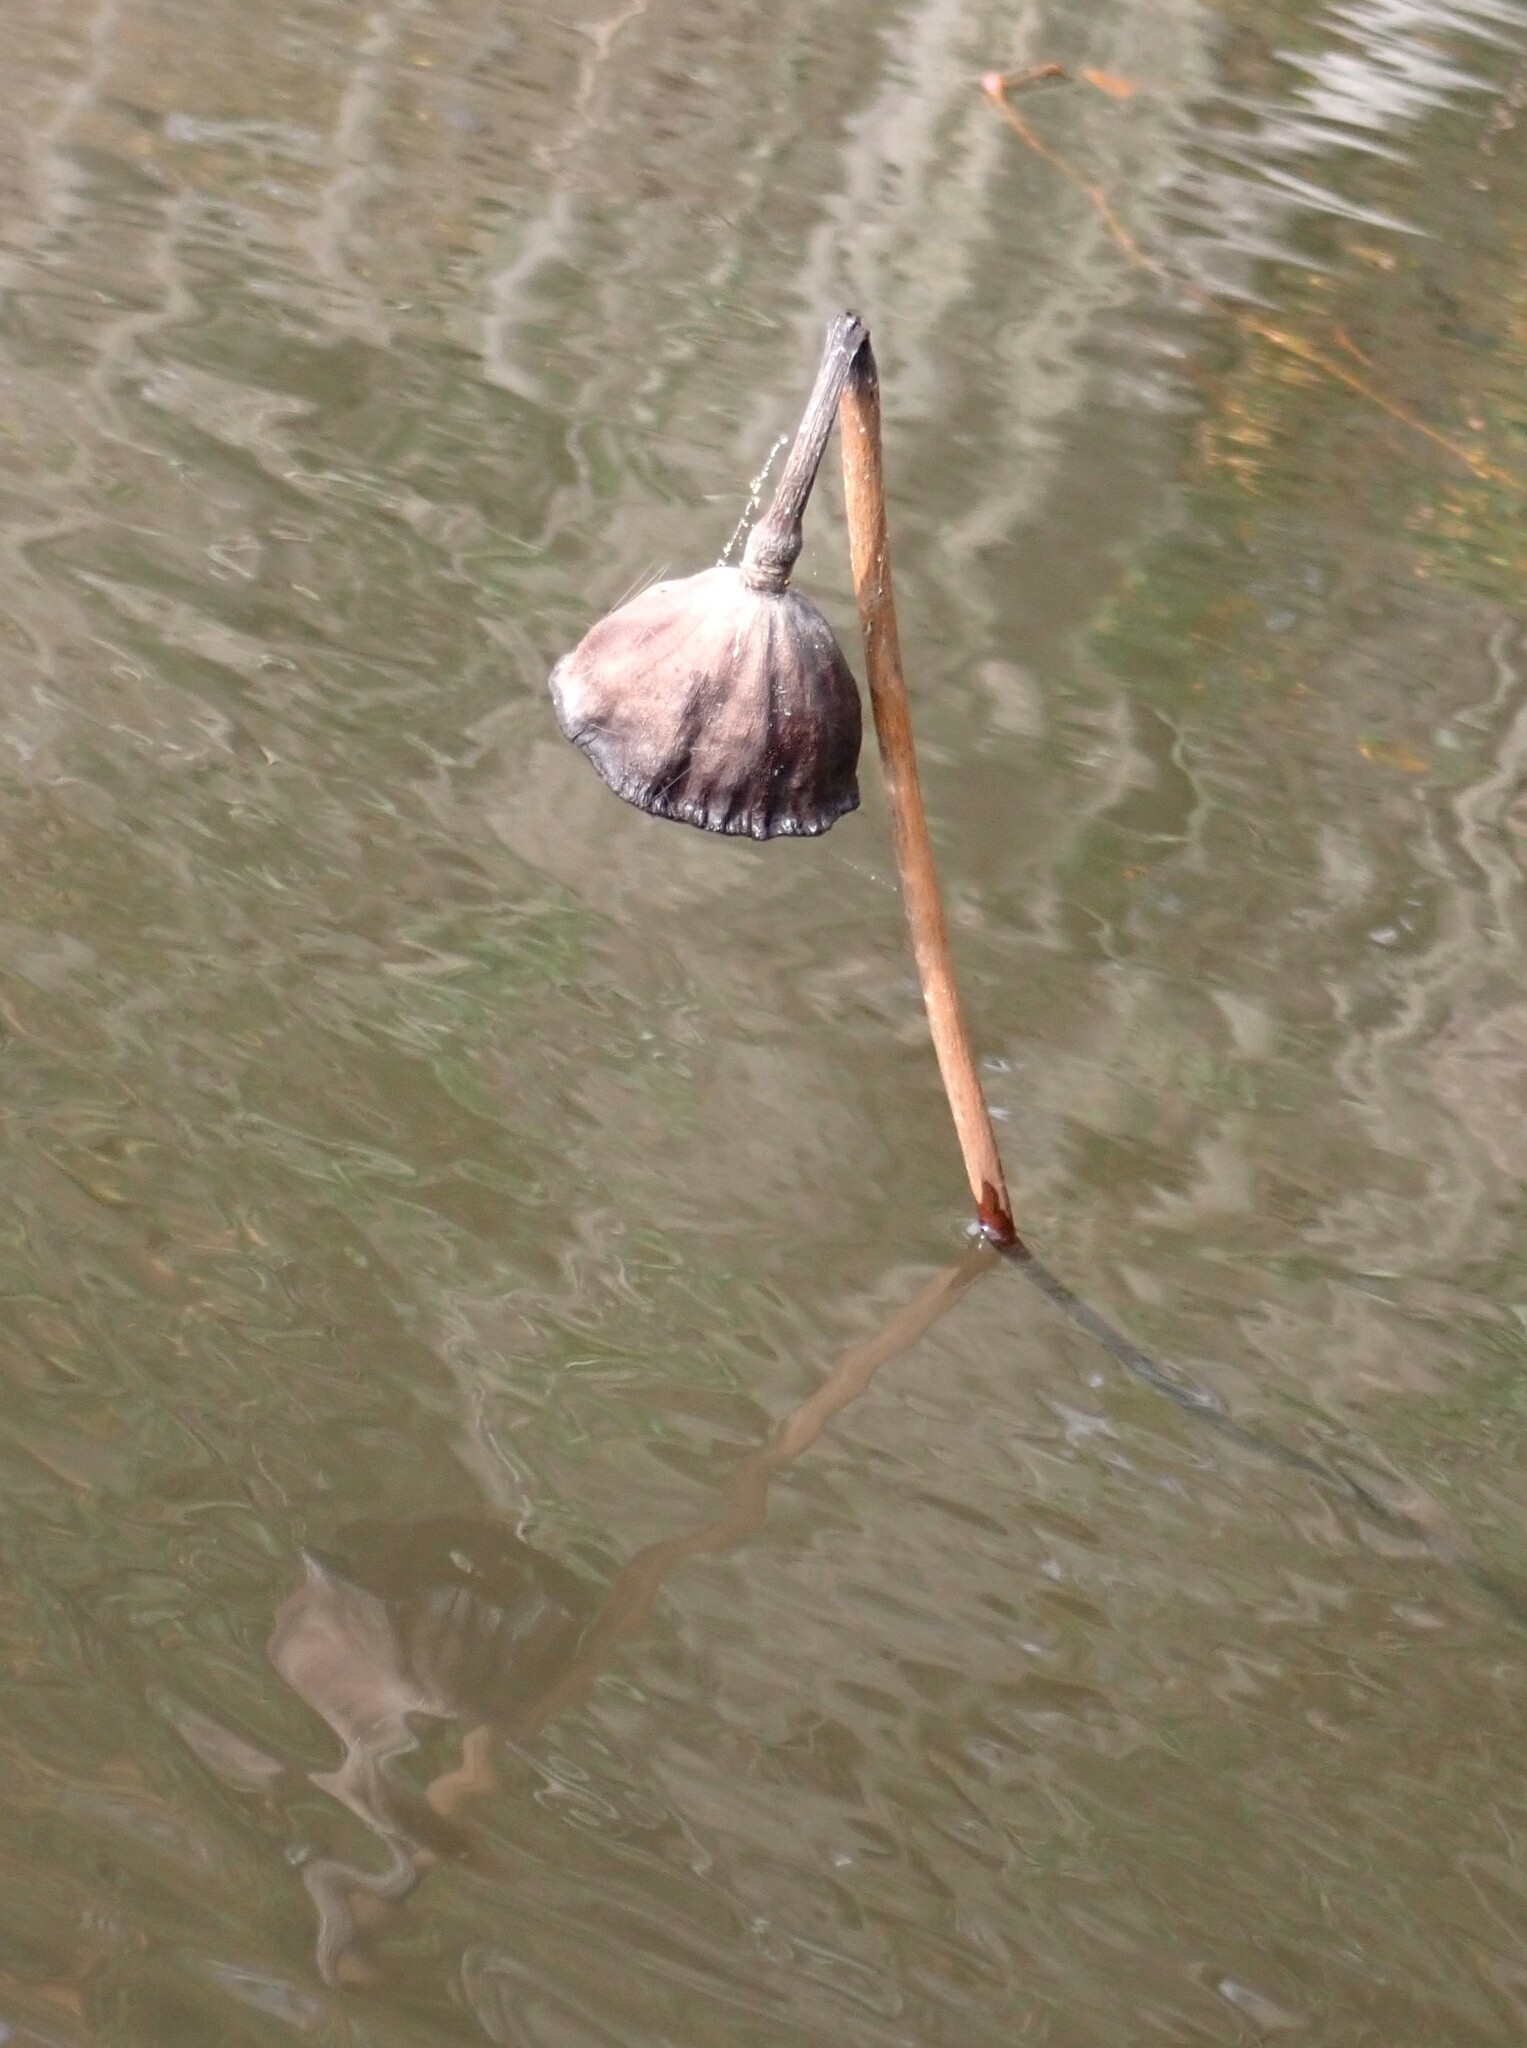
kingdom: Plantae
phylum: Tracheophyta
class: Magnoliopsida
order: Proteales
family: Nelumbonaceae
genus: Nelumbo
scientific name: Nelumbo lutea
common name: American lotus
